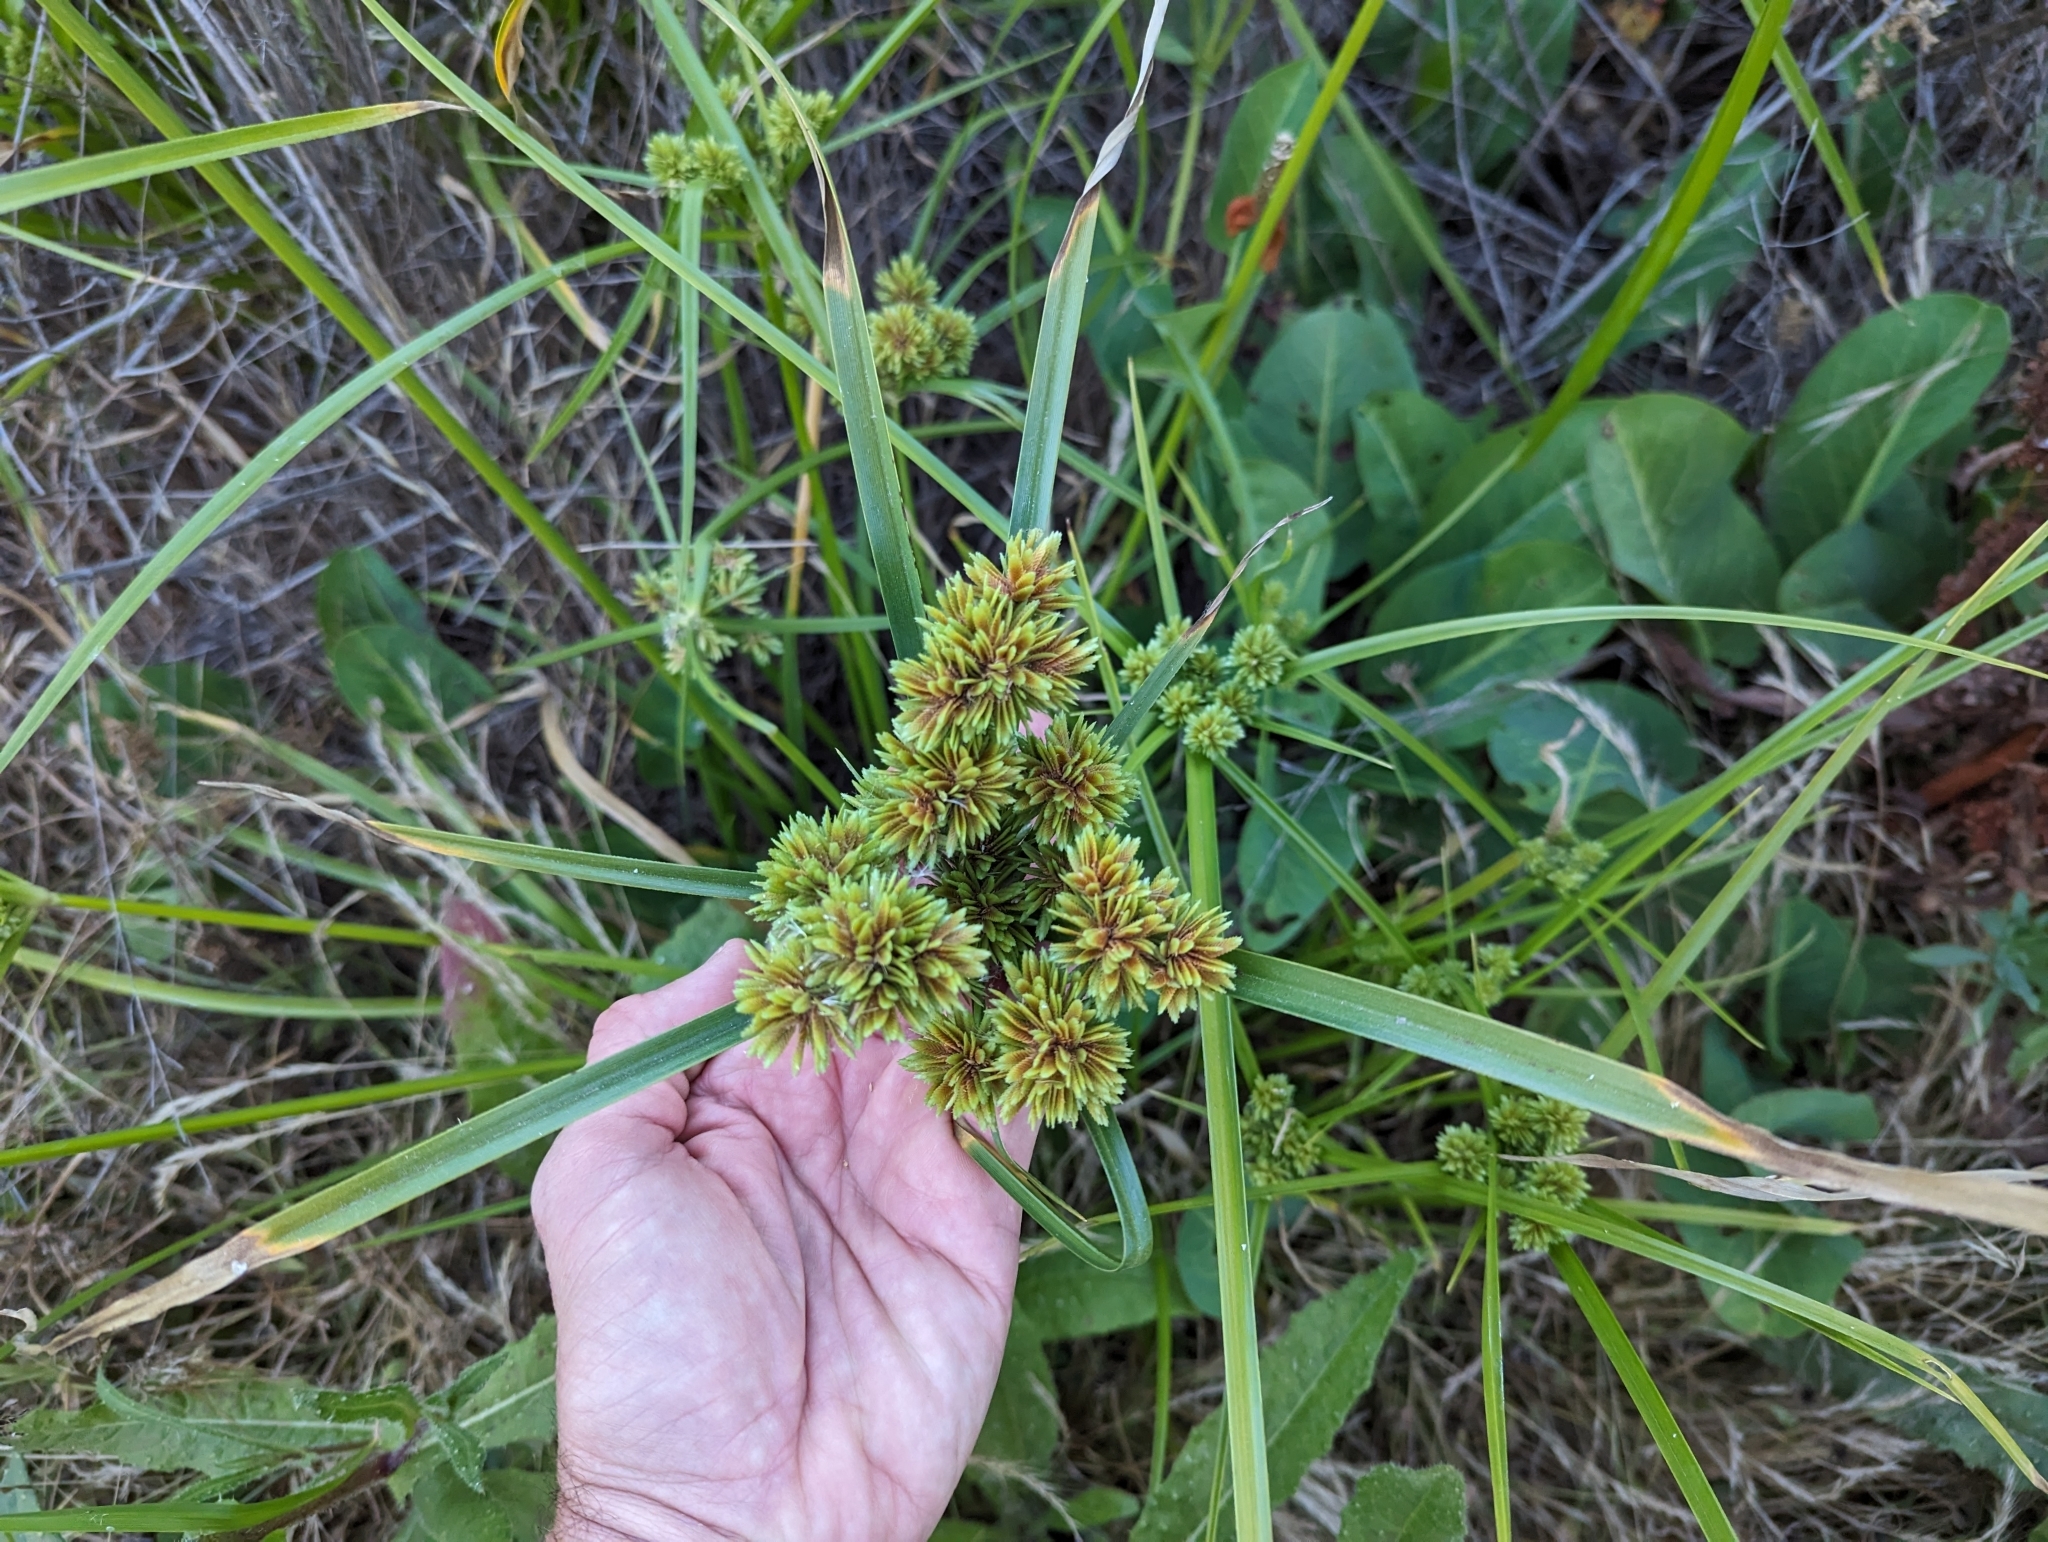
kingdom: Plantae
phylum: Tracheophyta
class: Liliopsida
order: Poales
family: Cyperaceae
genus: Cyperus
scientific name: Cyperus eragrostis
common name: Tall flatsedge
